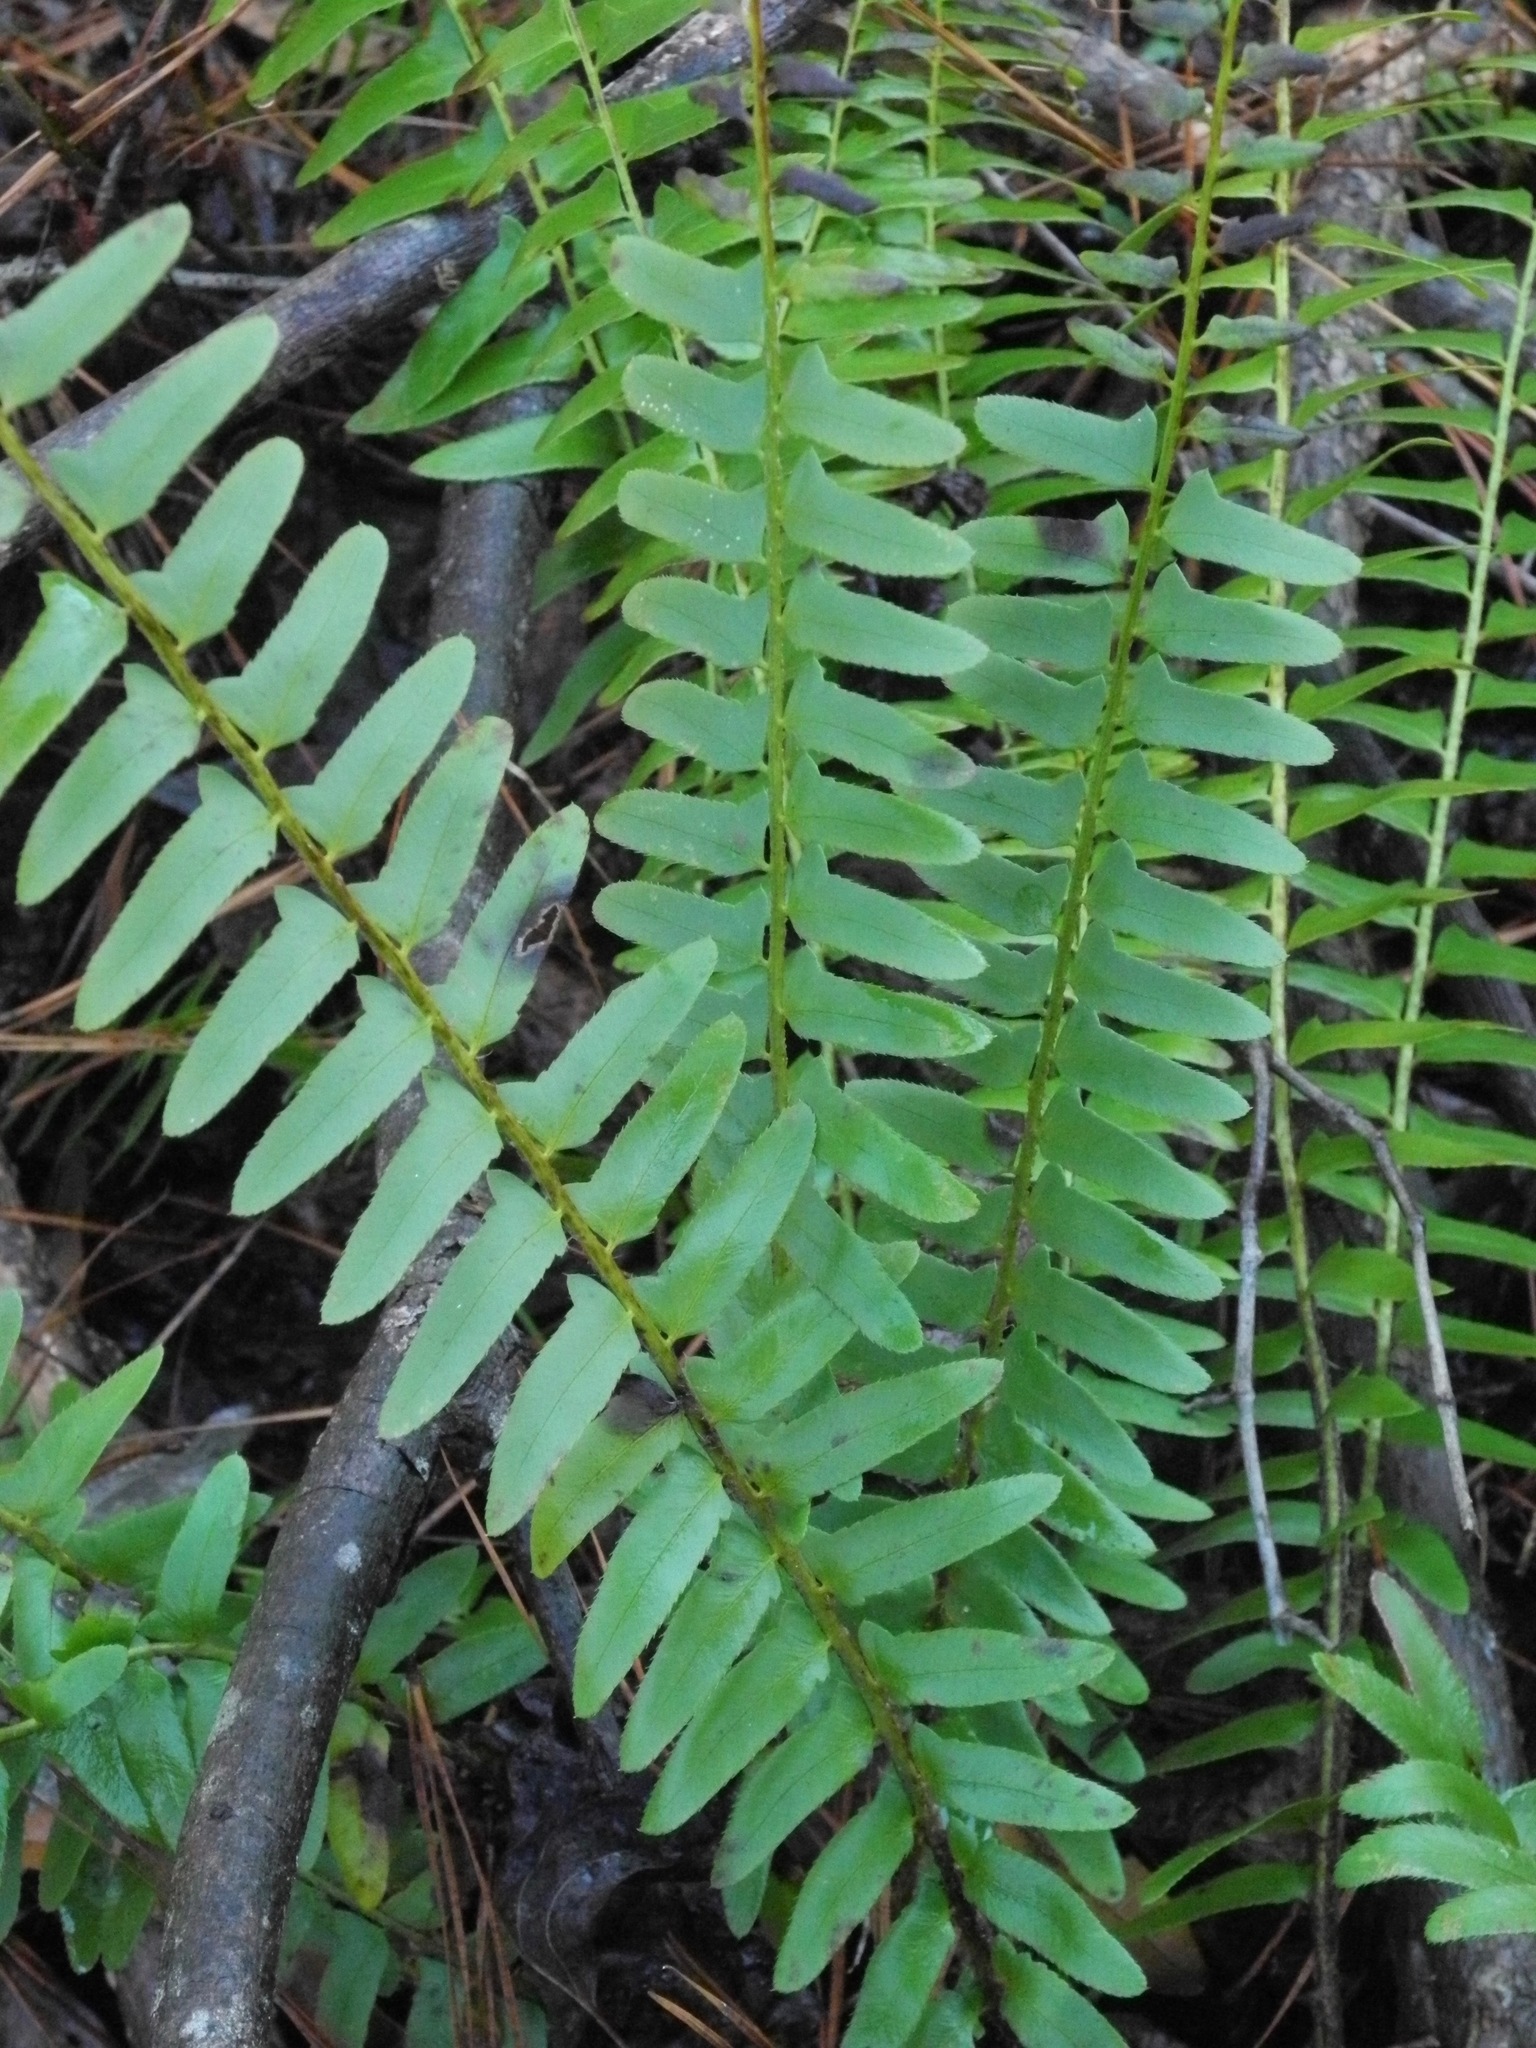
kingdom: Plantae
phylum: Tracheophyta
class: Polypodiopsida
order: Polypodiales
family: Dryopteridaceae
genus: Polystichum
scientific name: Polystichum acrostichoides
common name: Christmas fern
